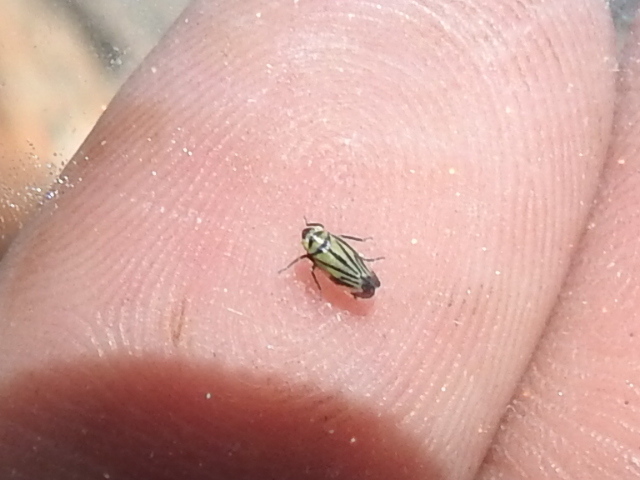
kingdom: Animalia
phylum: Arthropoda
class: Insecta
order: Hemiptera
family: Cicadellidae
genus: Stirellus
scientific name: Stirellus bicolor
